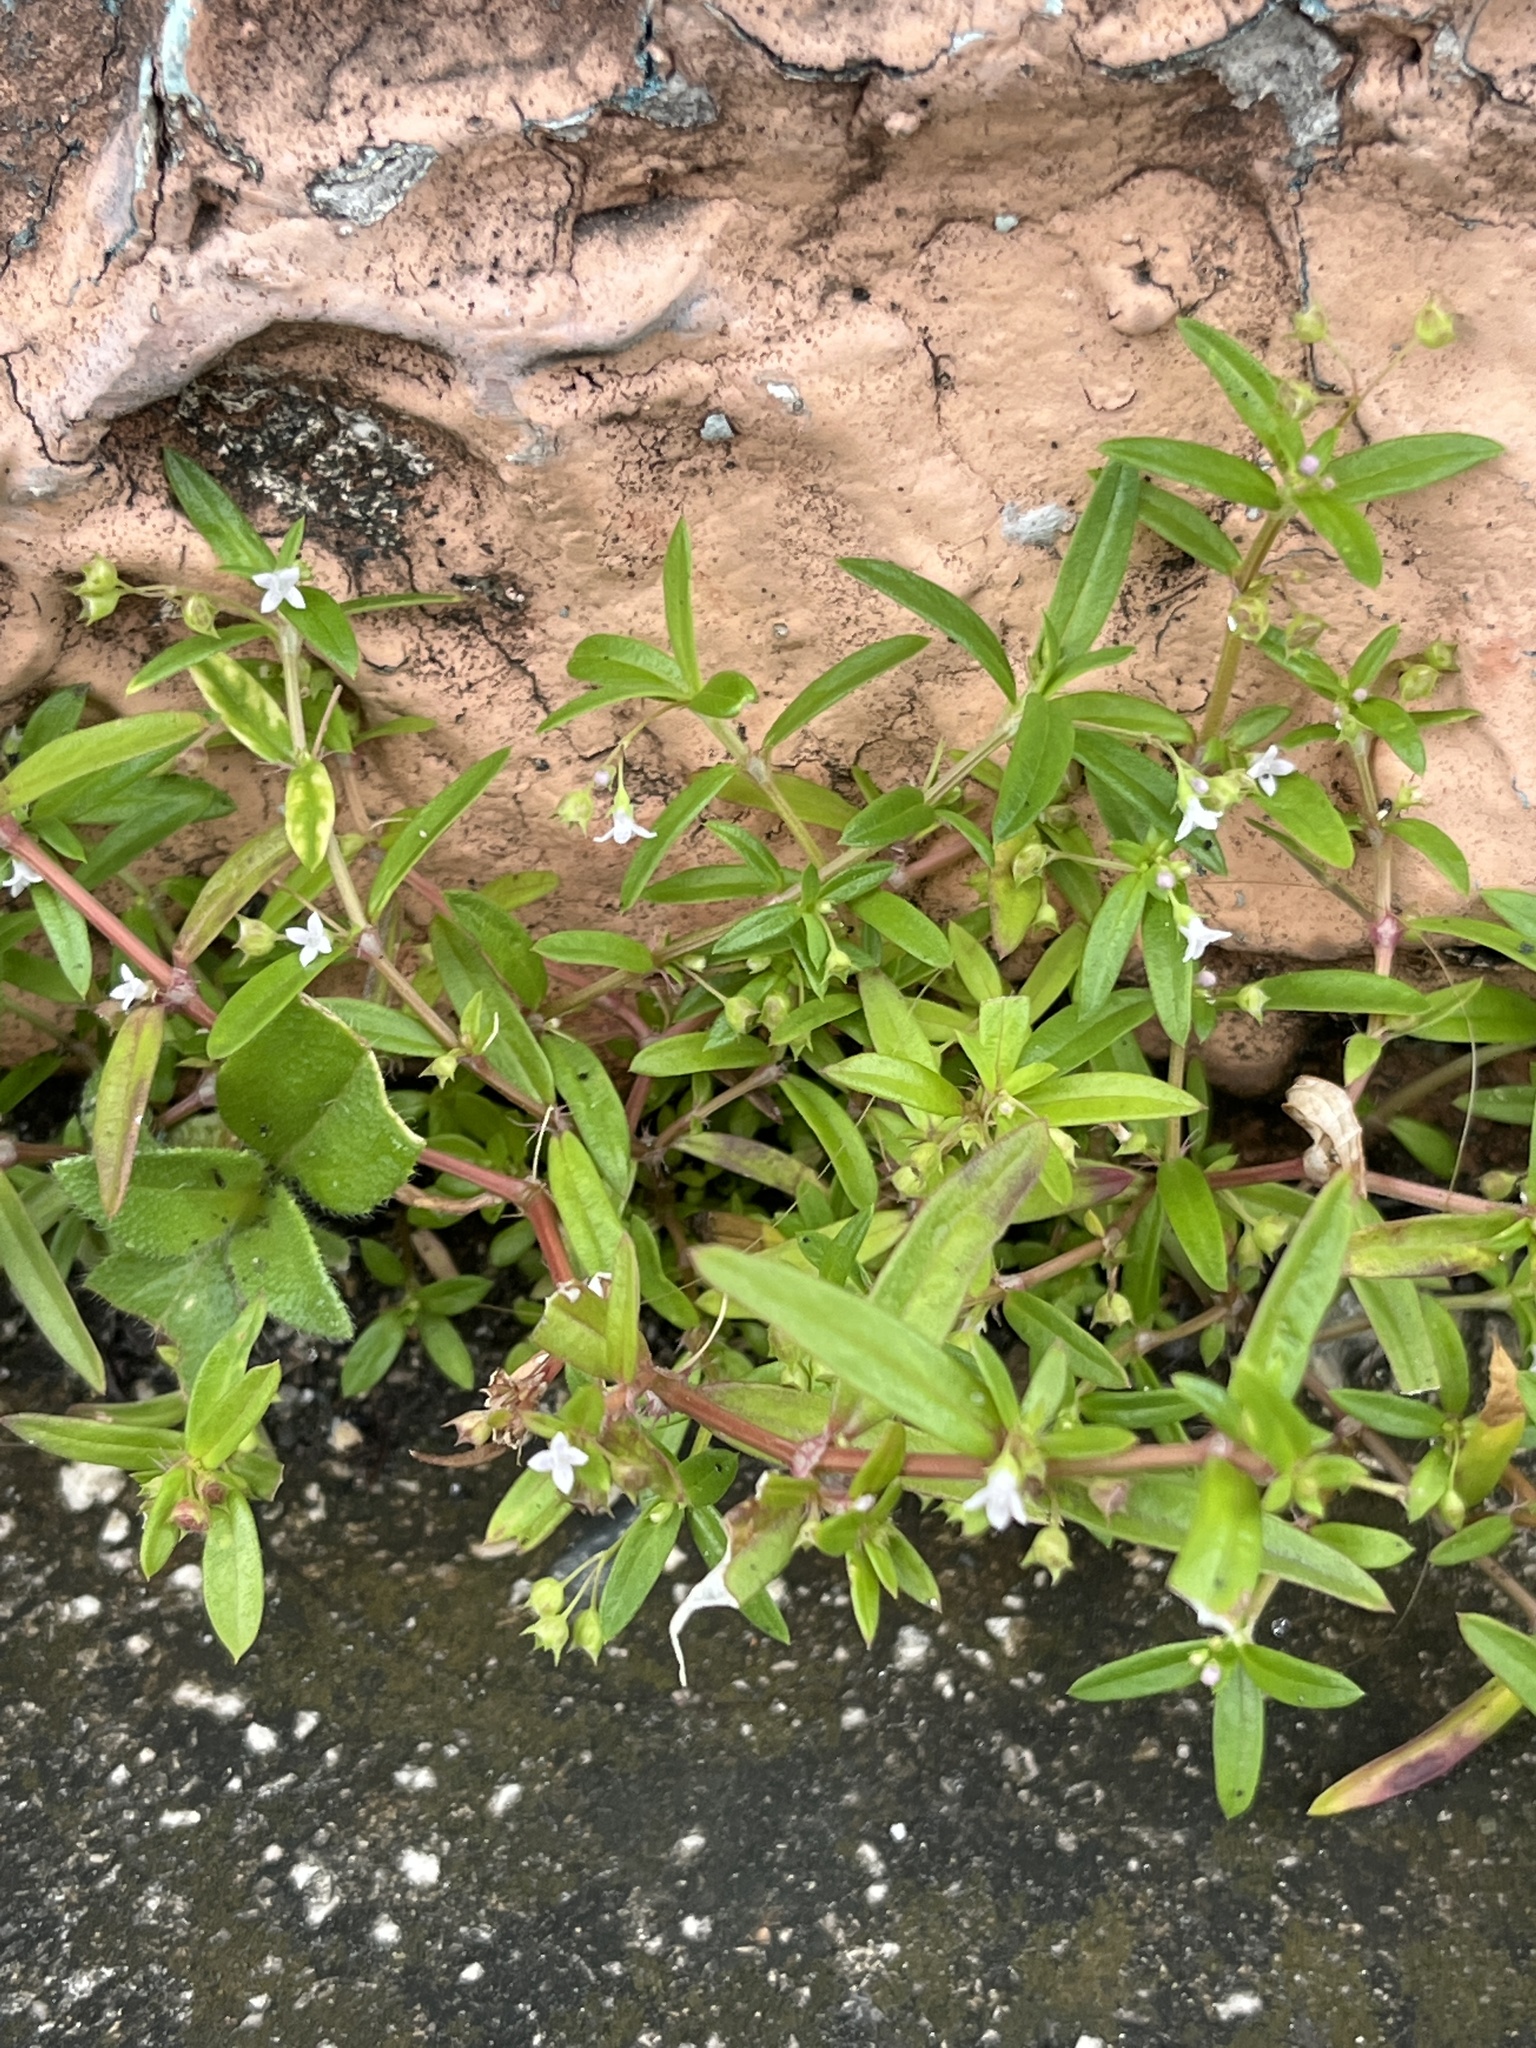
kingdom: Plantae
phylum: Tracheophyta
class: Magnoliopsida
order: Gentianales
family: Rubiaceae
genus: Oldenlandia
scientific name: Oldenlandia corymbosa
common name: Flat-top mille graines
